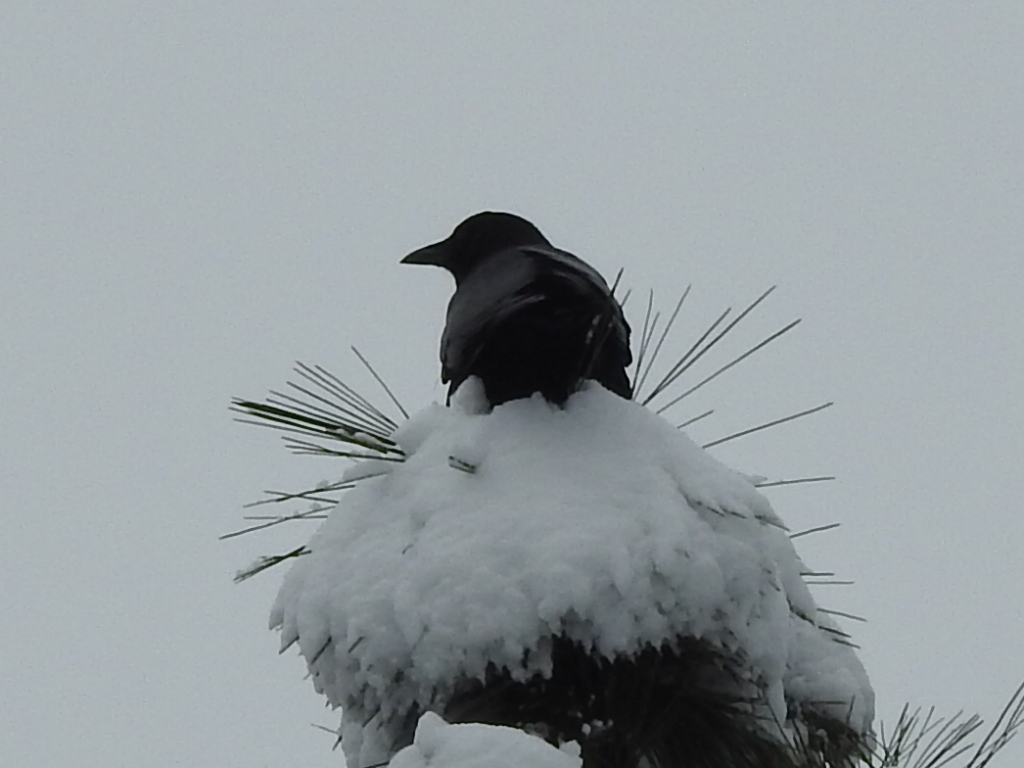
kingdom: Animalia
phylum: Chordata
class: Aves
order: Passeriformes
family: Corvidae
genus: Corvus
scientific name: Corvus brachyrhynchos
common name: American crow
